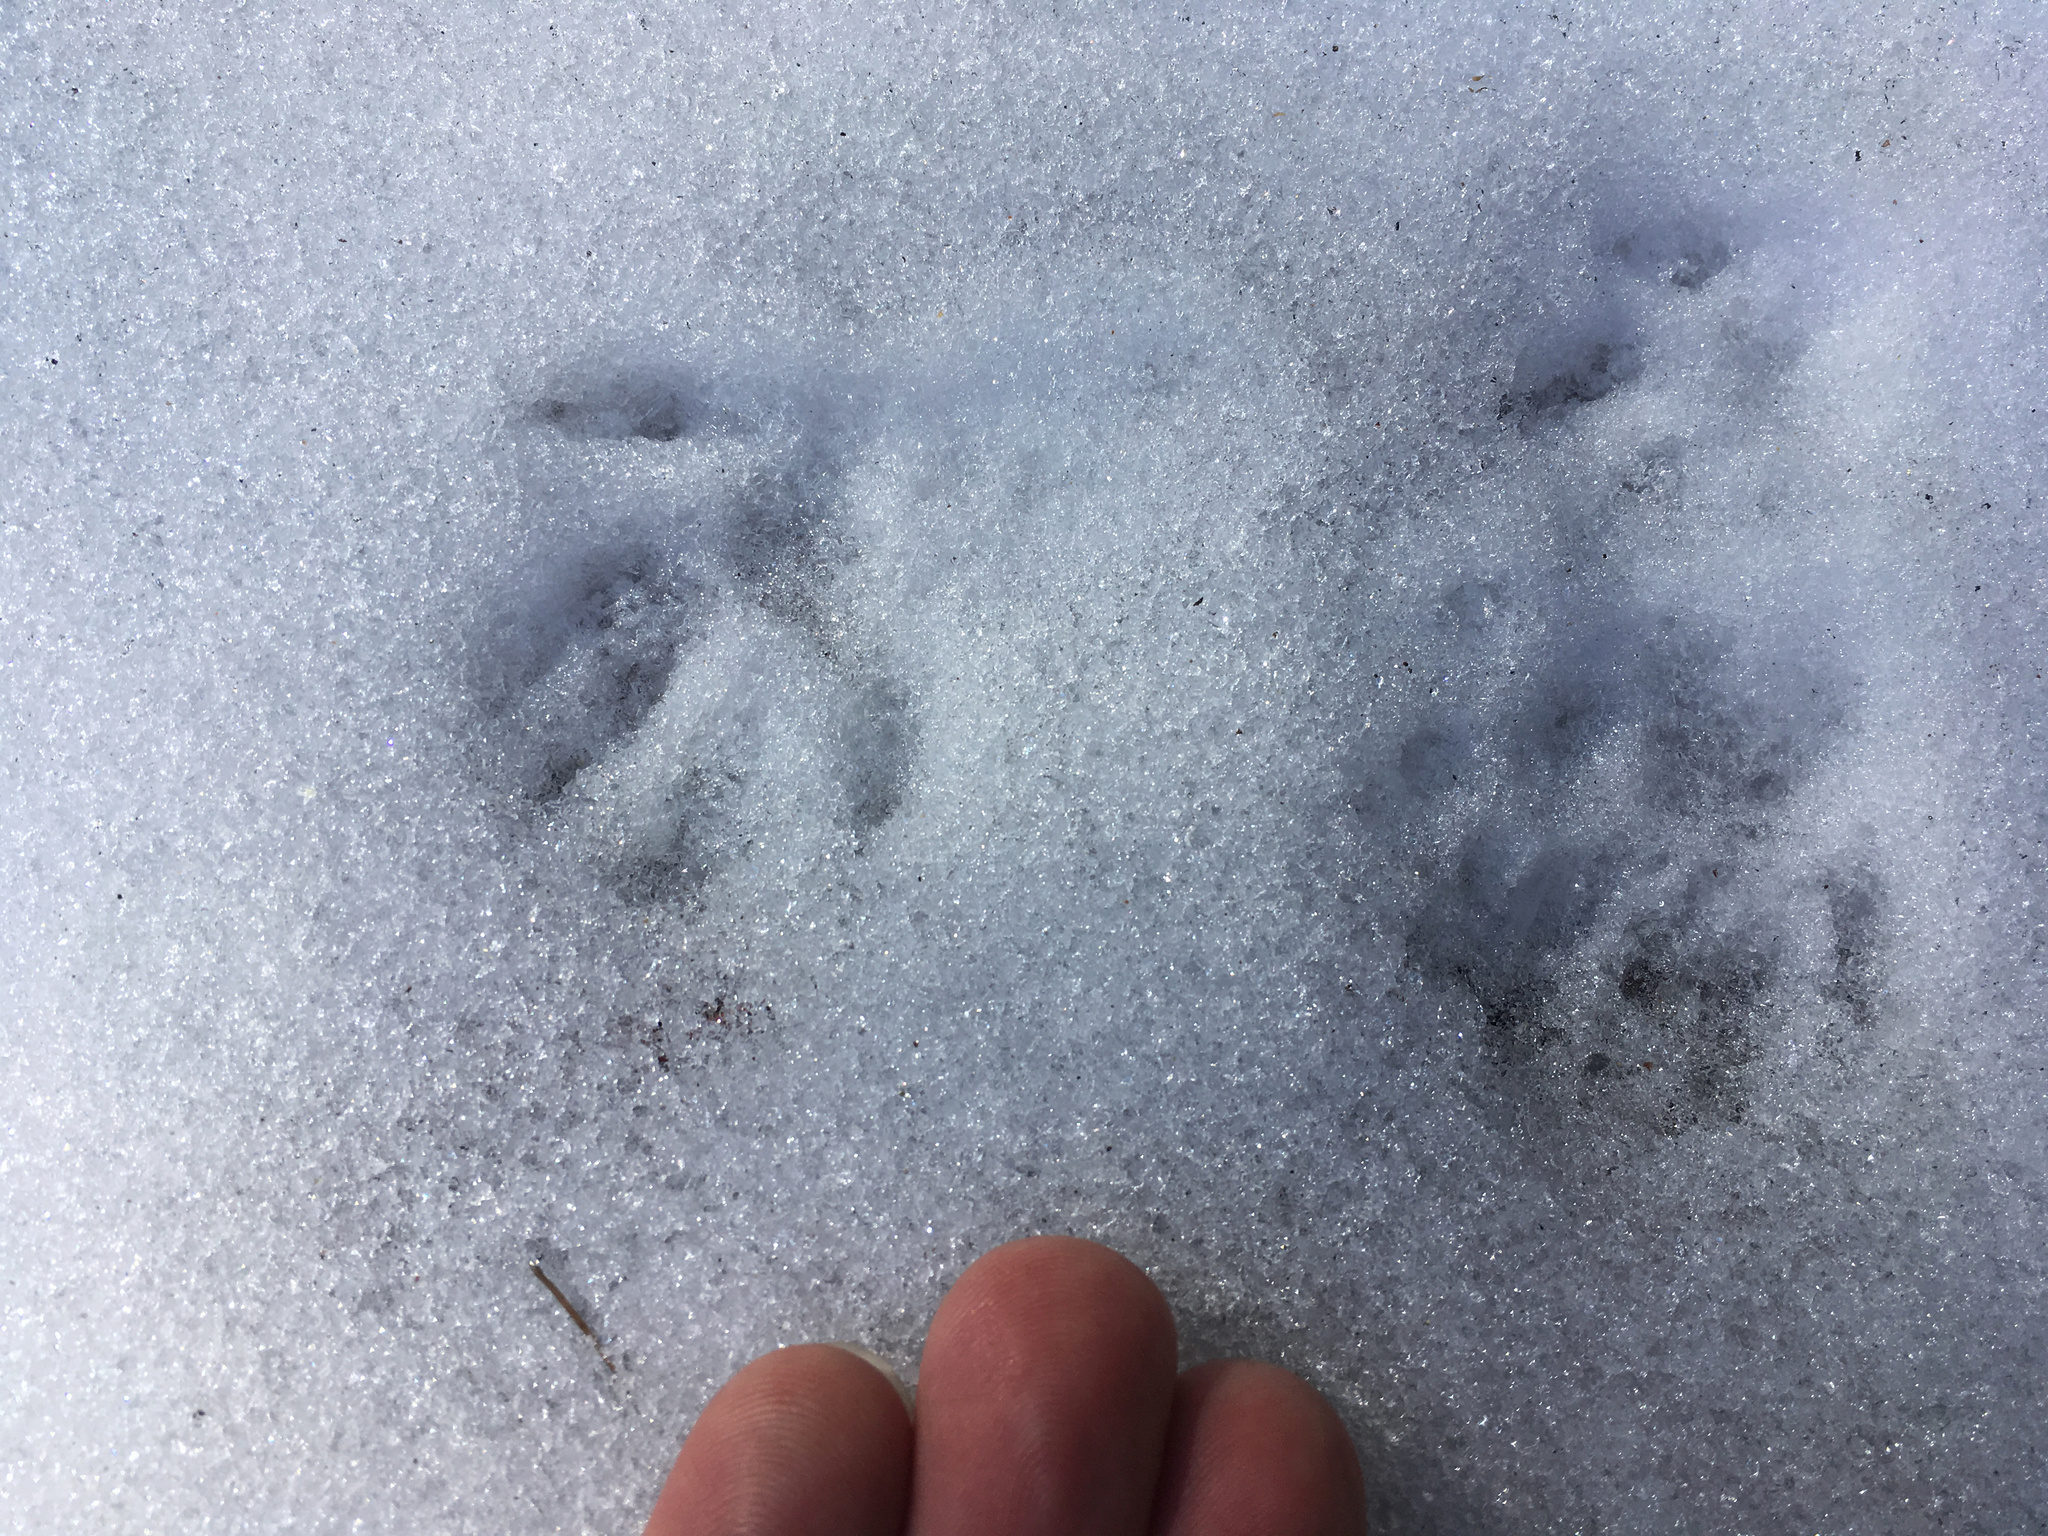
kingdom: Animalia
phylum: Chordata
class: Mammalia
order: Rodentia
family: Sciuridae
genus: Sciurus
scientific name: Sciurus griseus
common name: Western gray squirrel
